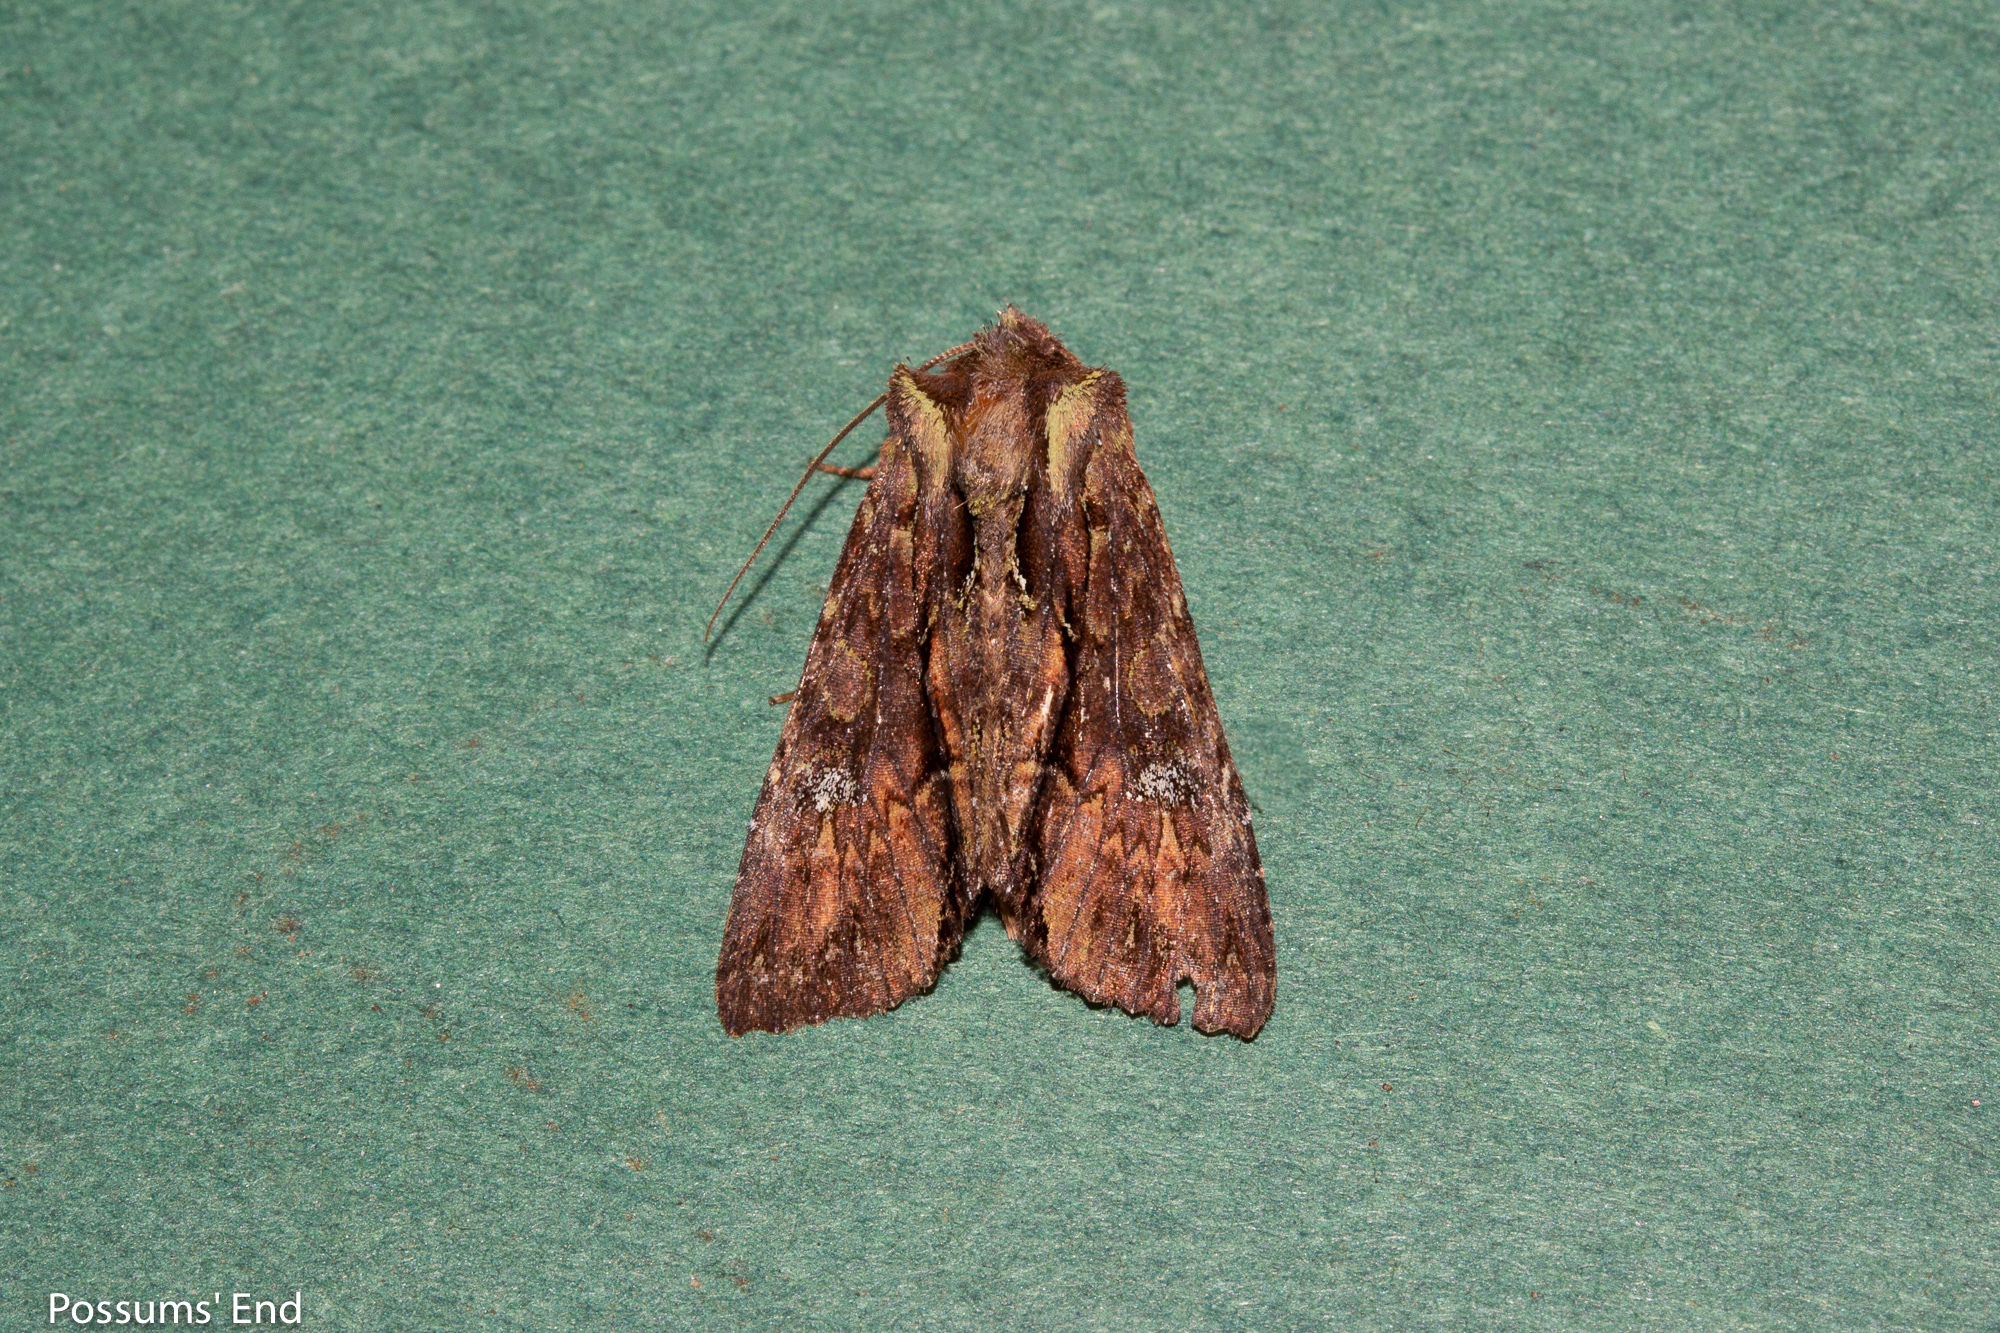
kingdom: Animalia
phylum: Arthropoda
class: Insecta
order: Lepidoptera
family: Noctuidae
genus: Meterana
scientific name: Meterana diatmeta
